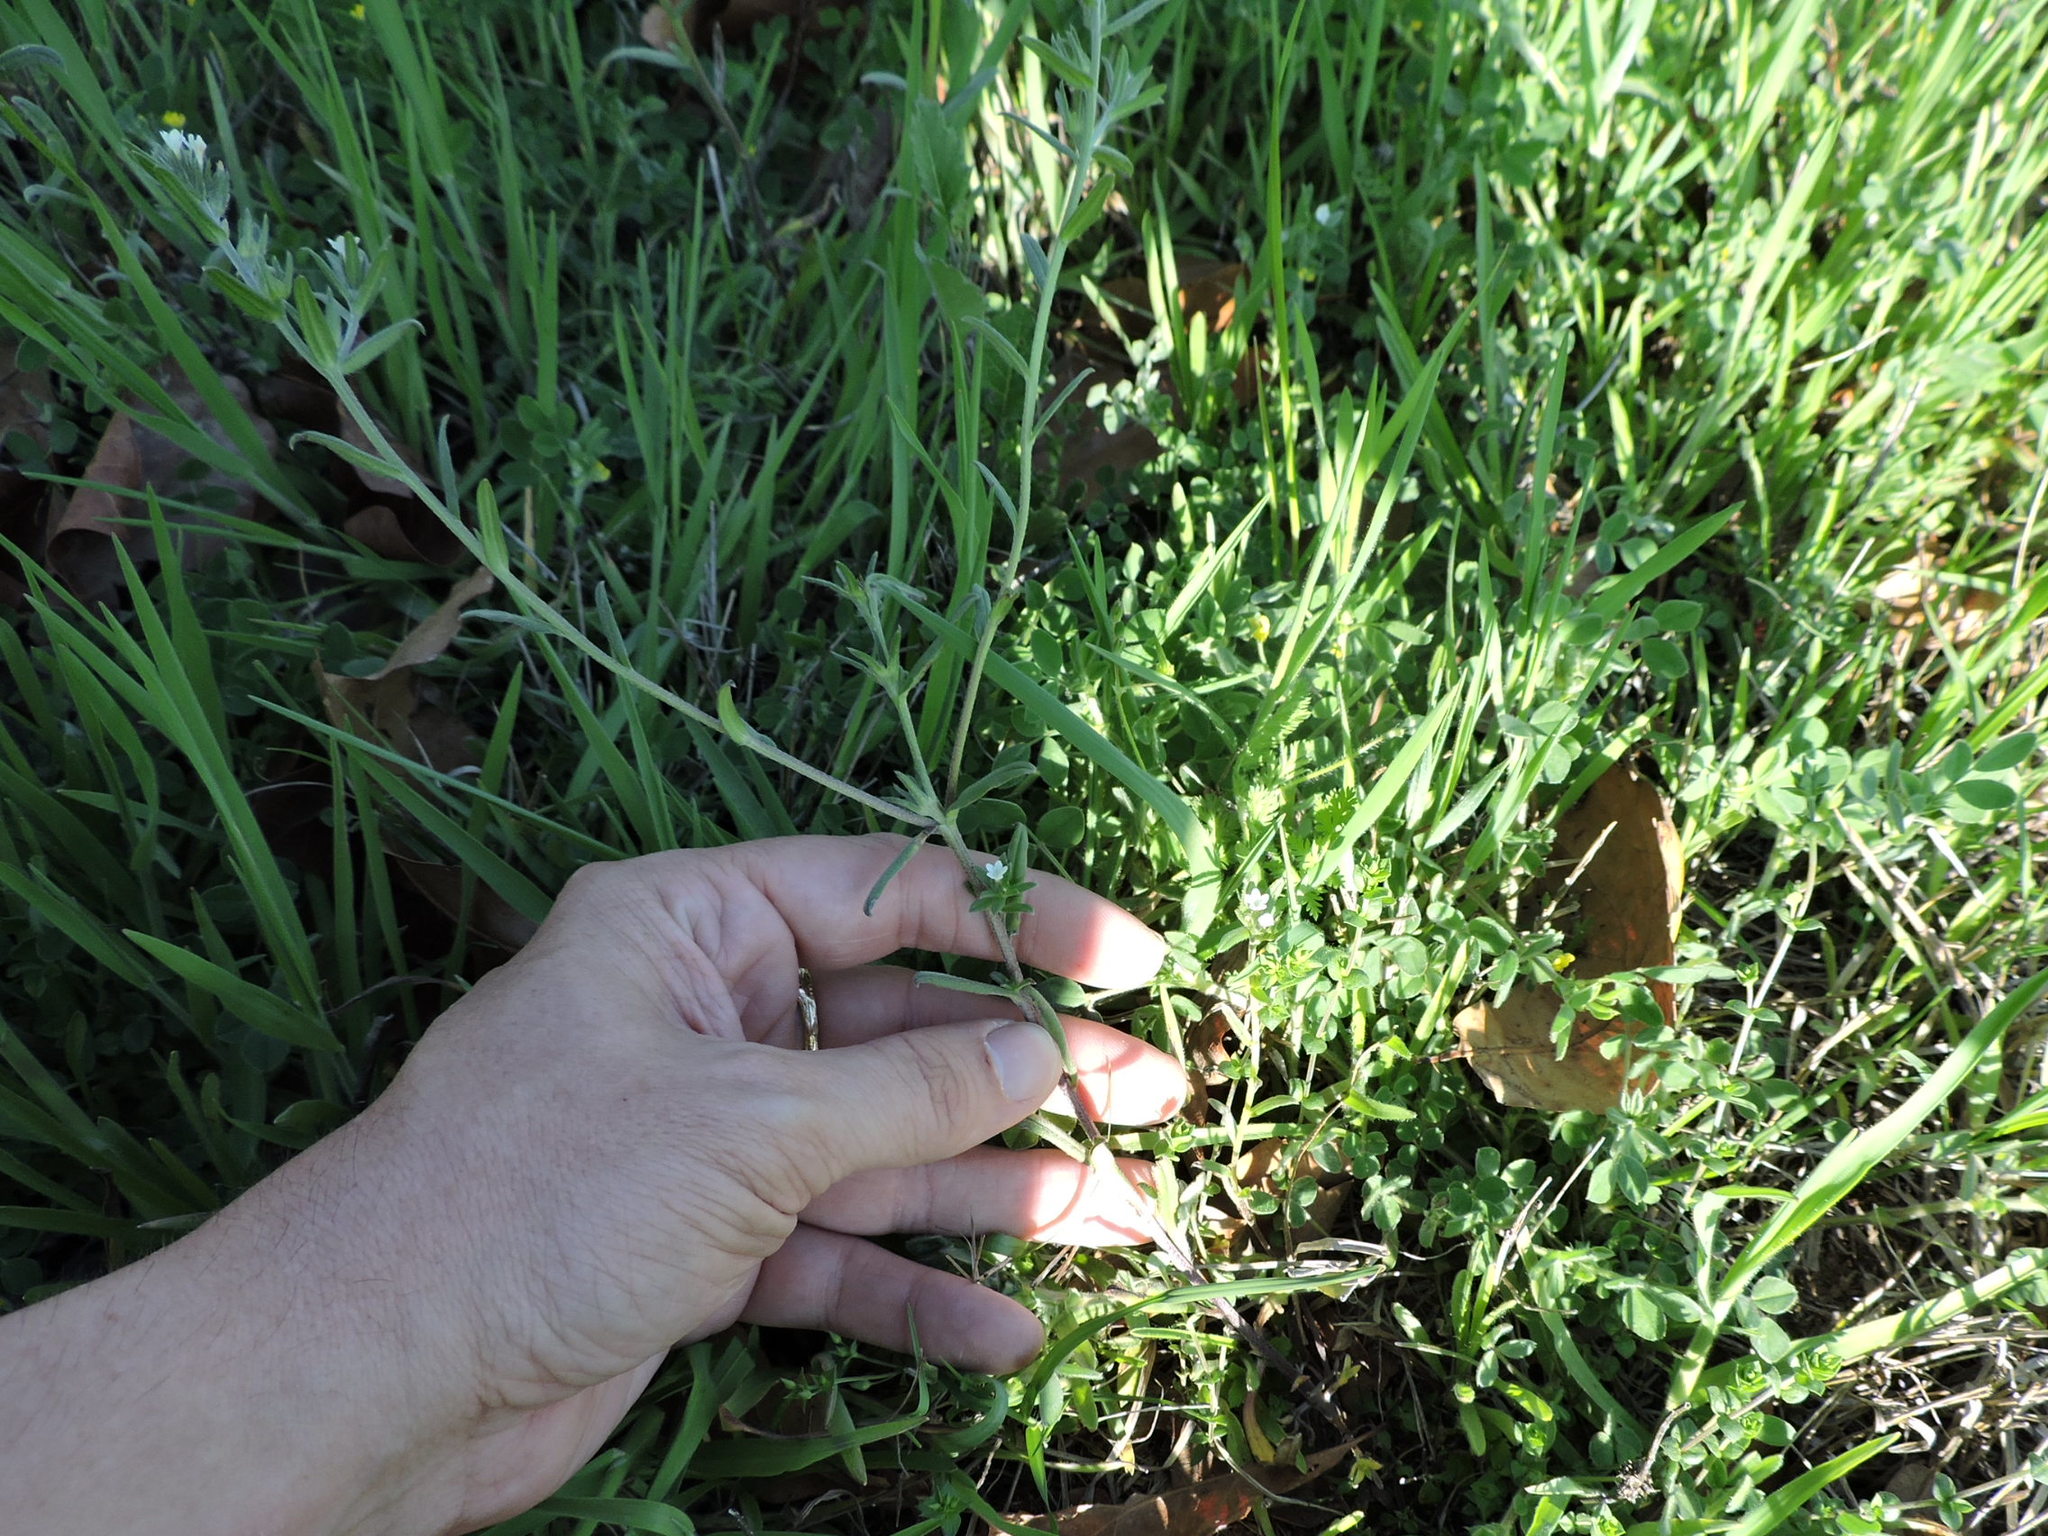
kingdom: Plantae
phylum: Tracheophyta
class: Magnoliopsida
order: Boraginales
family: Boraginaceae
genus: Buglossoides
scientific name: Buglossoides arvensis
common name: Corn gromwell
